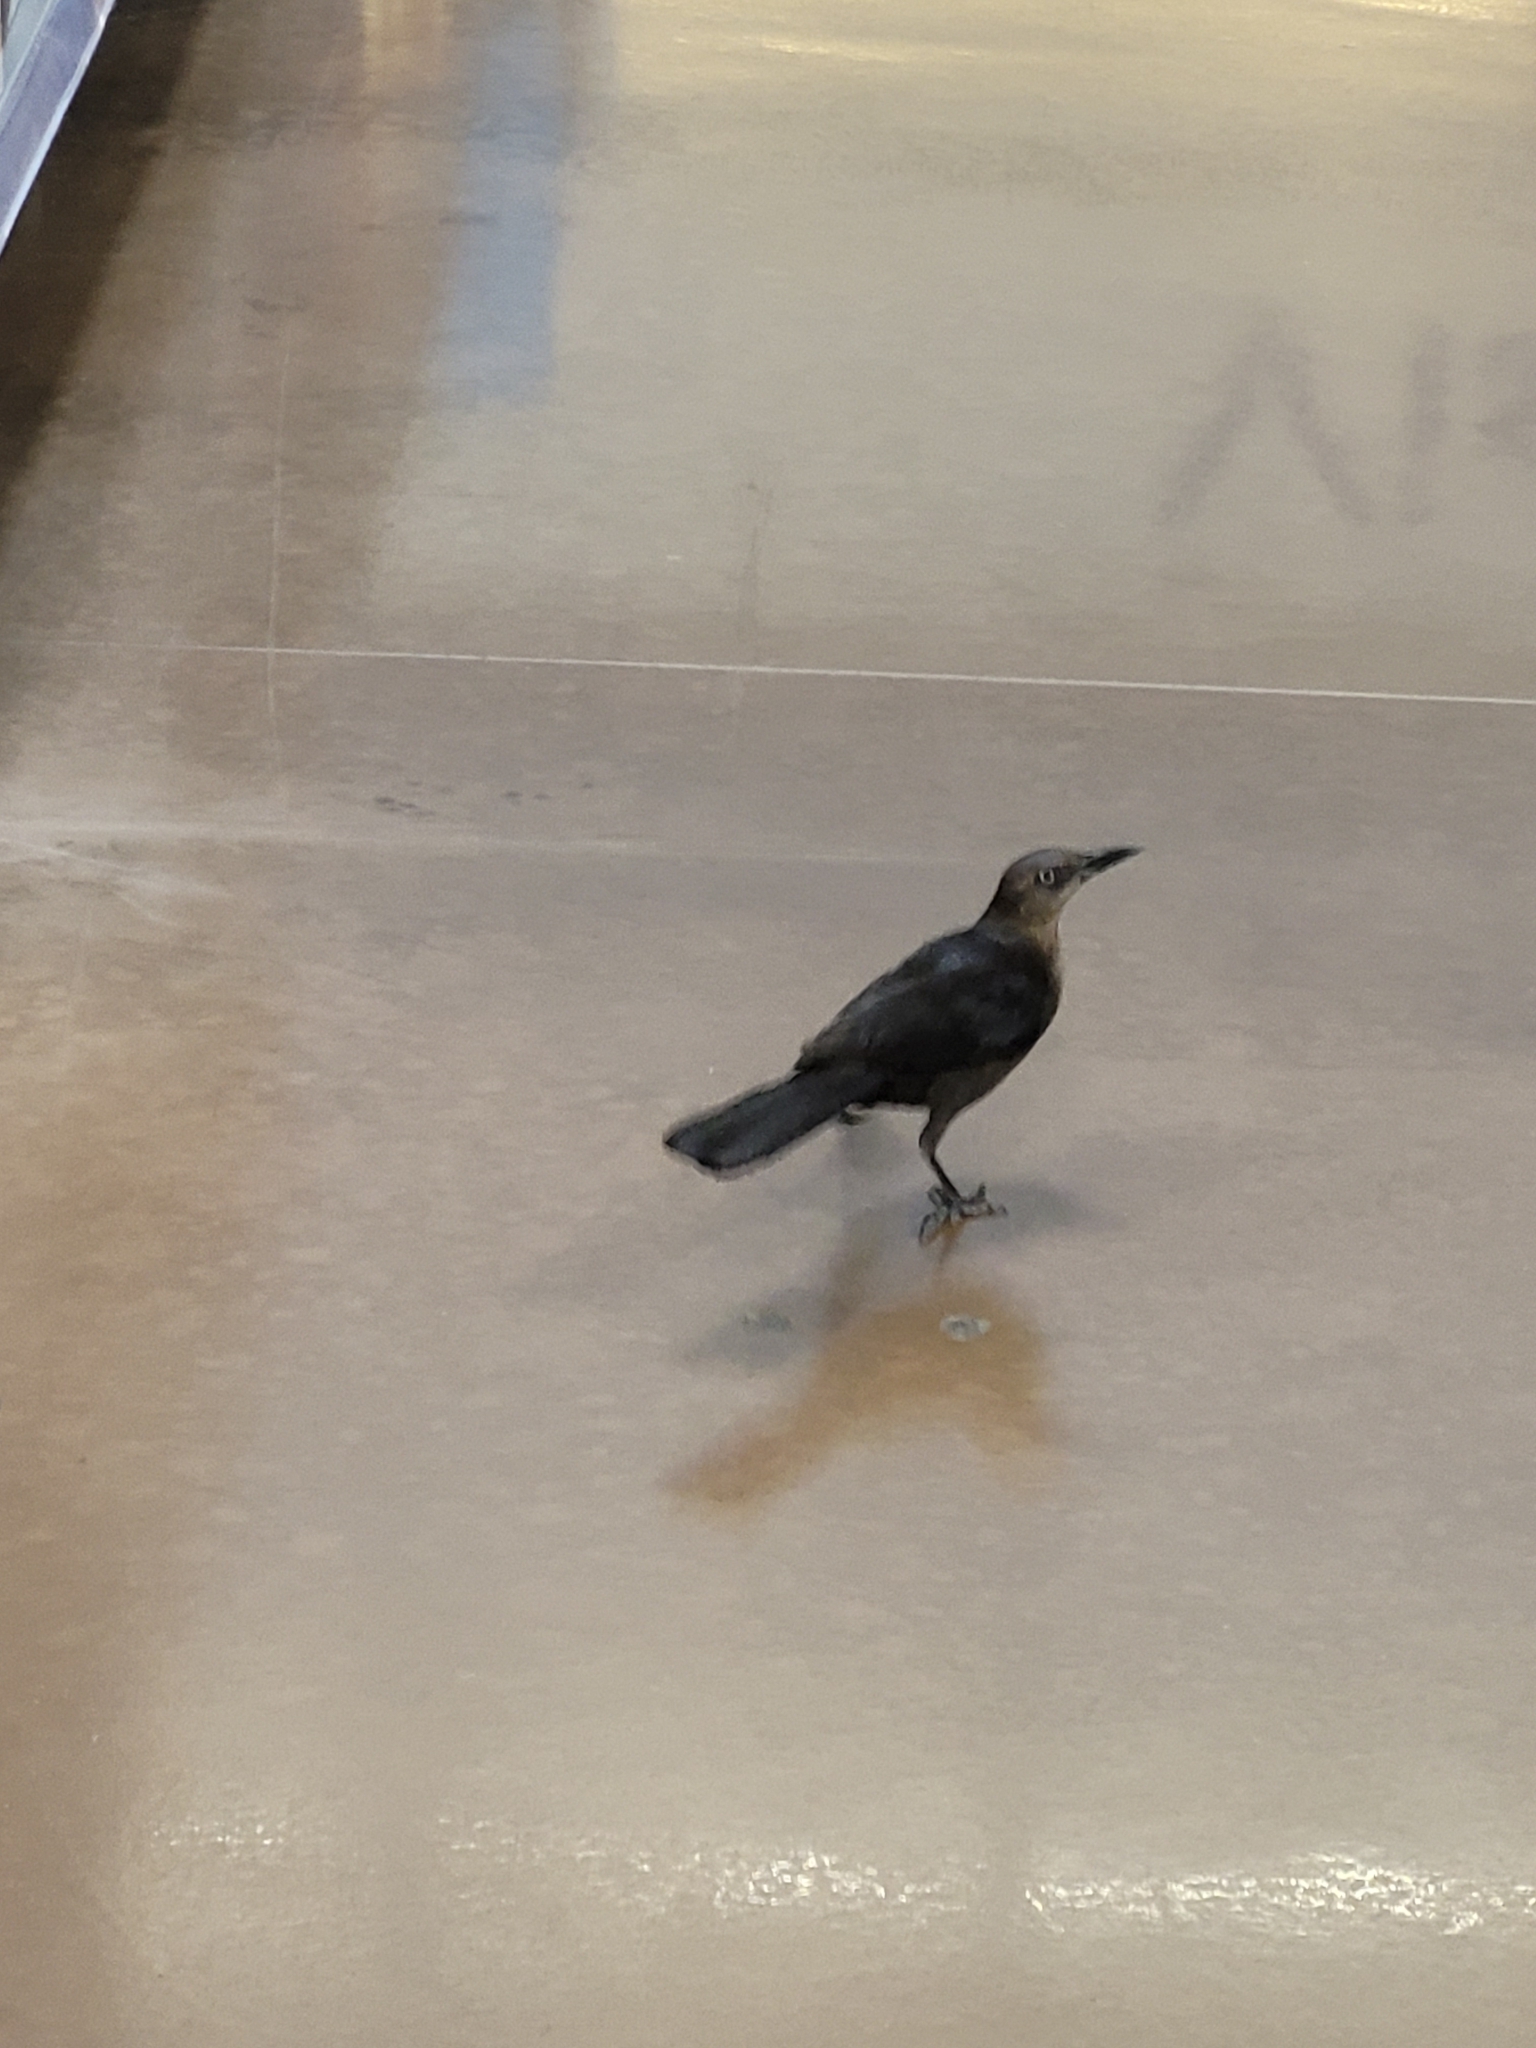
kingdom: Animalia
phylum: Chordata
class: Aves
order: Passeriformes
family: Icteridae
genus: Quiscalus
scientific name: Quiscalus mexicanus
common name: Great-tailed grackle
